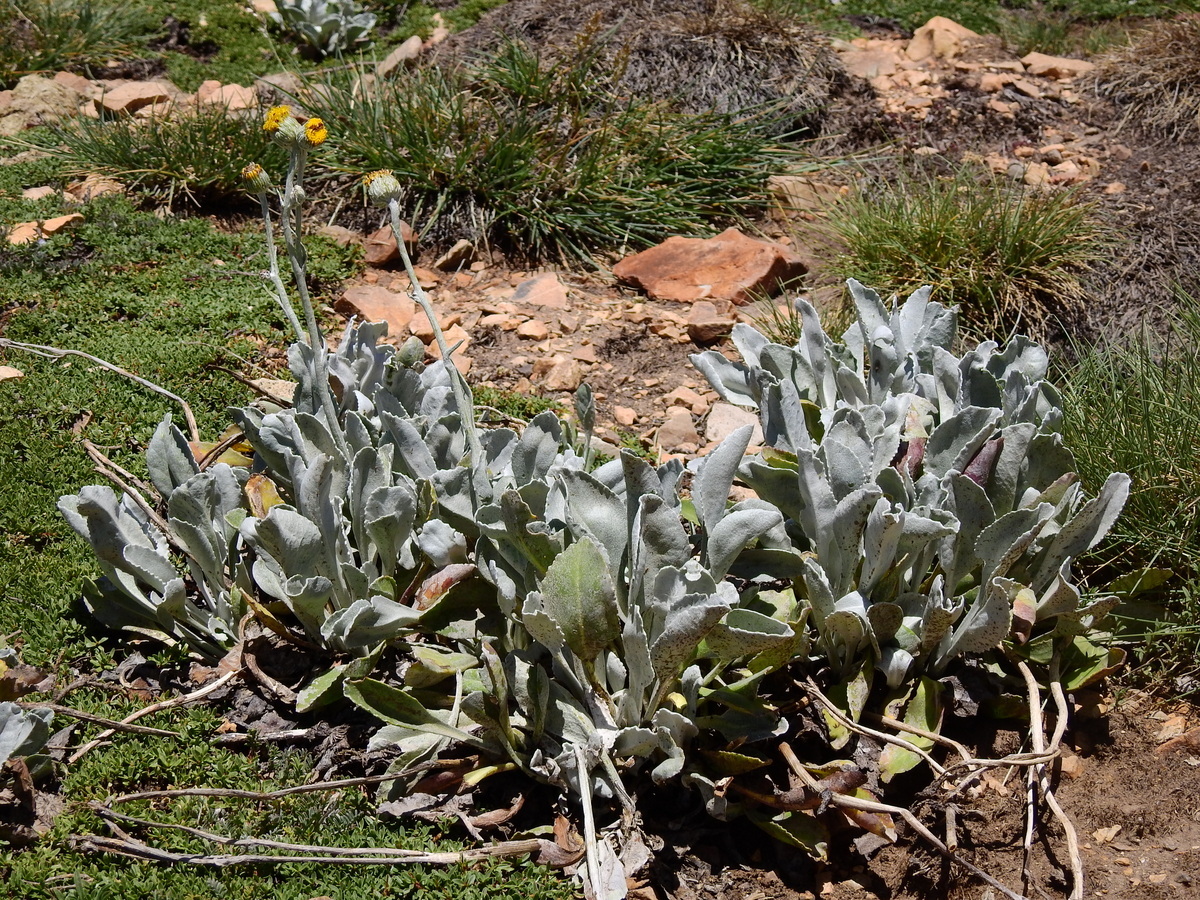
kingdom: Plantae
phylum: Tracheophyta
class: Magnoliopsida
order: Asterales
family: Asteraceae
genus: Senecio
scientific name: Senecio gilliesii
